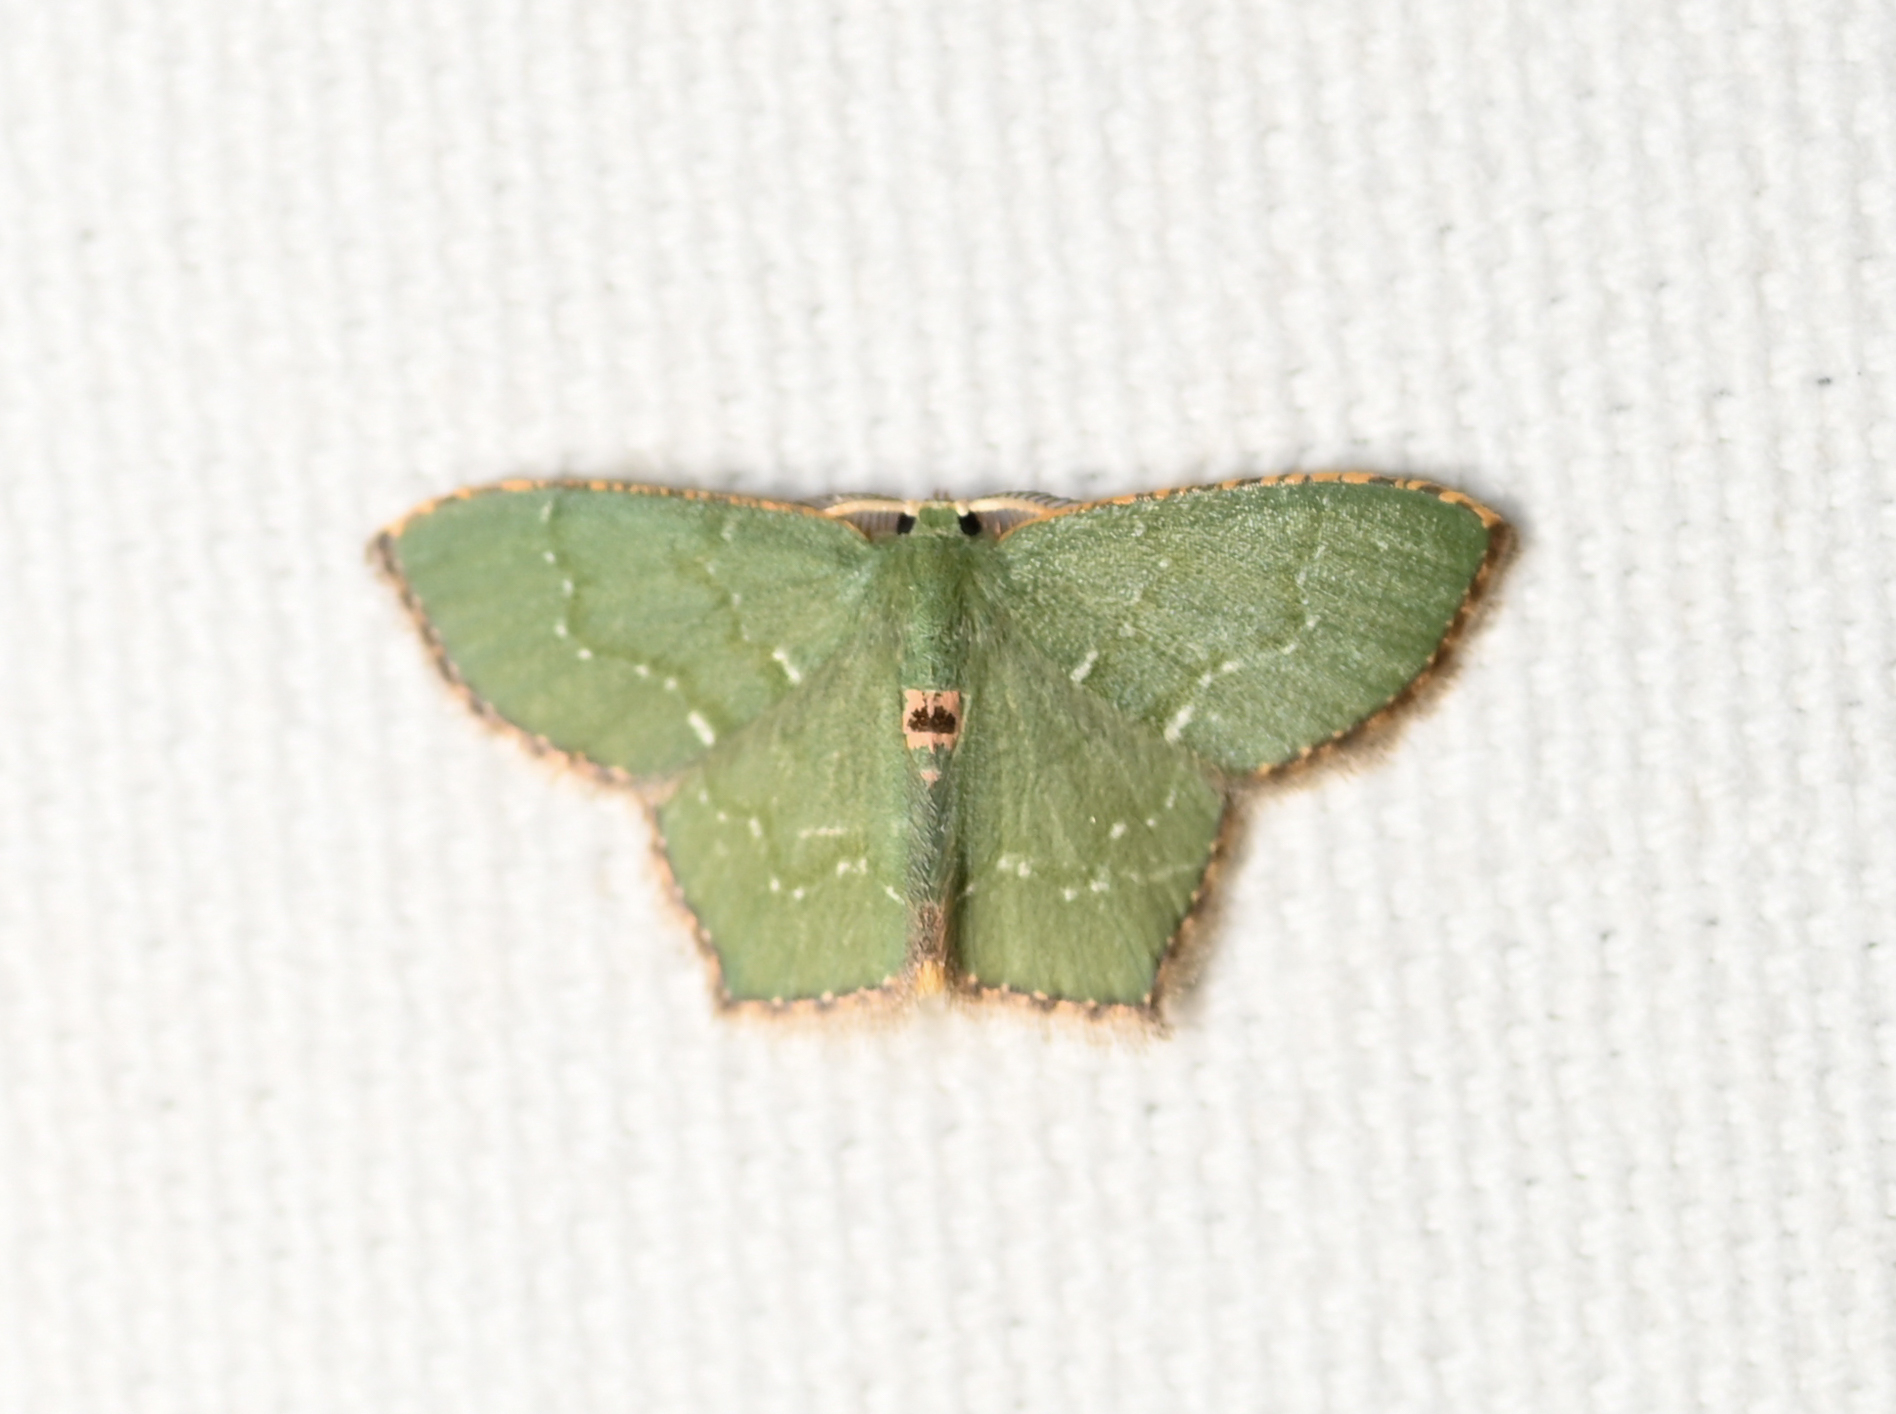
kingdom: Animalia
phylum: Arthropoda
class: Insecta
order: Lepidoptera
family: Geometridae
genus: Chloropteryx
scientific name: Chloropteryx tepperaria
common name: Angle winged emerald moth
